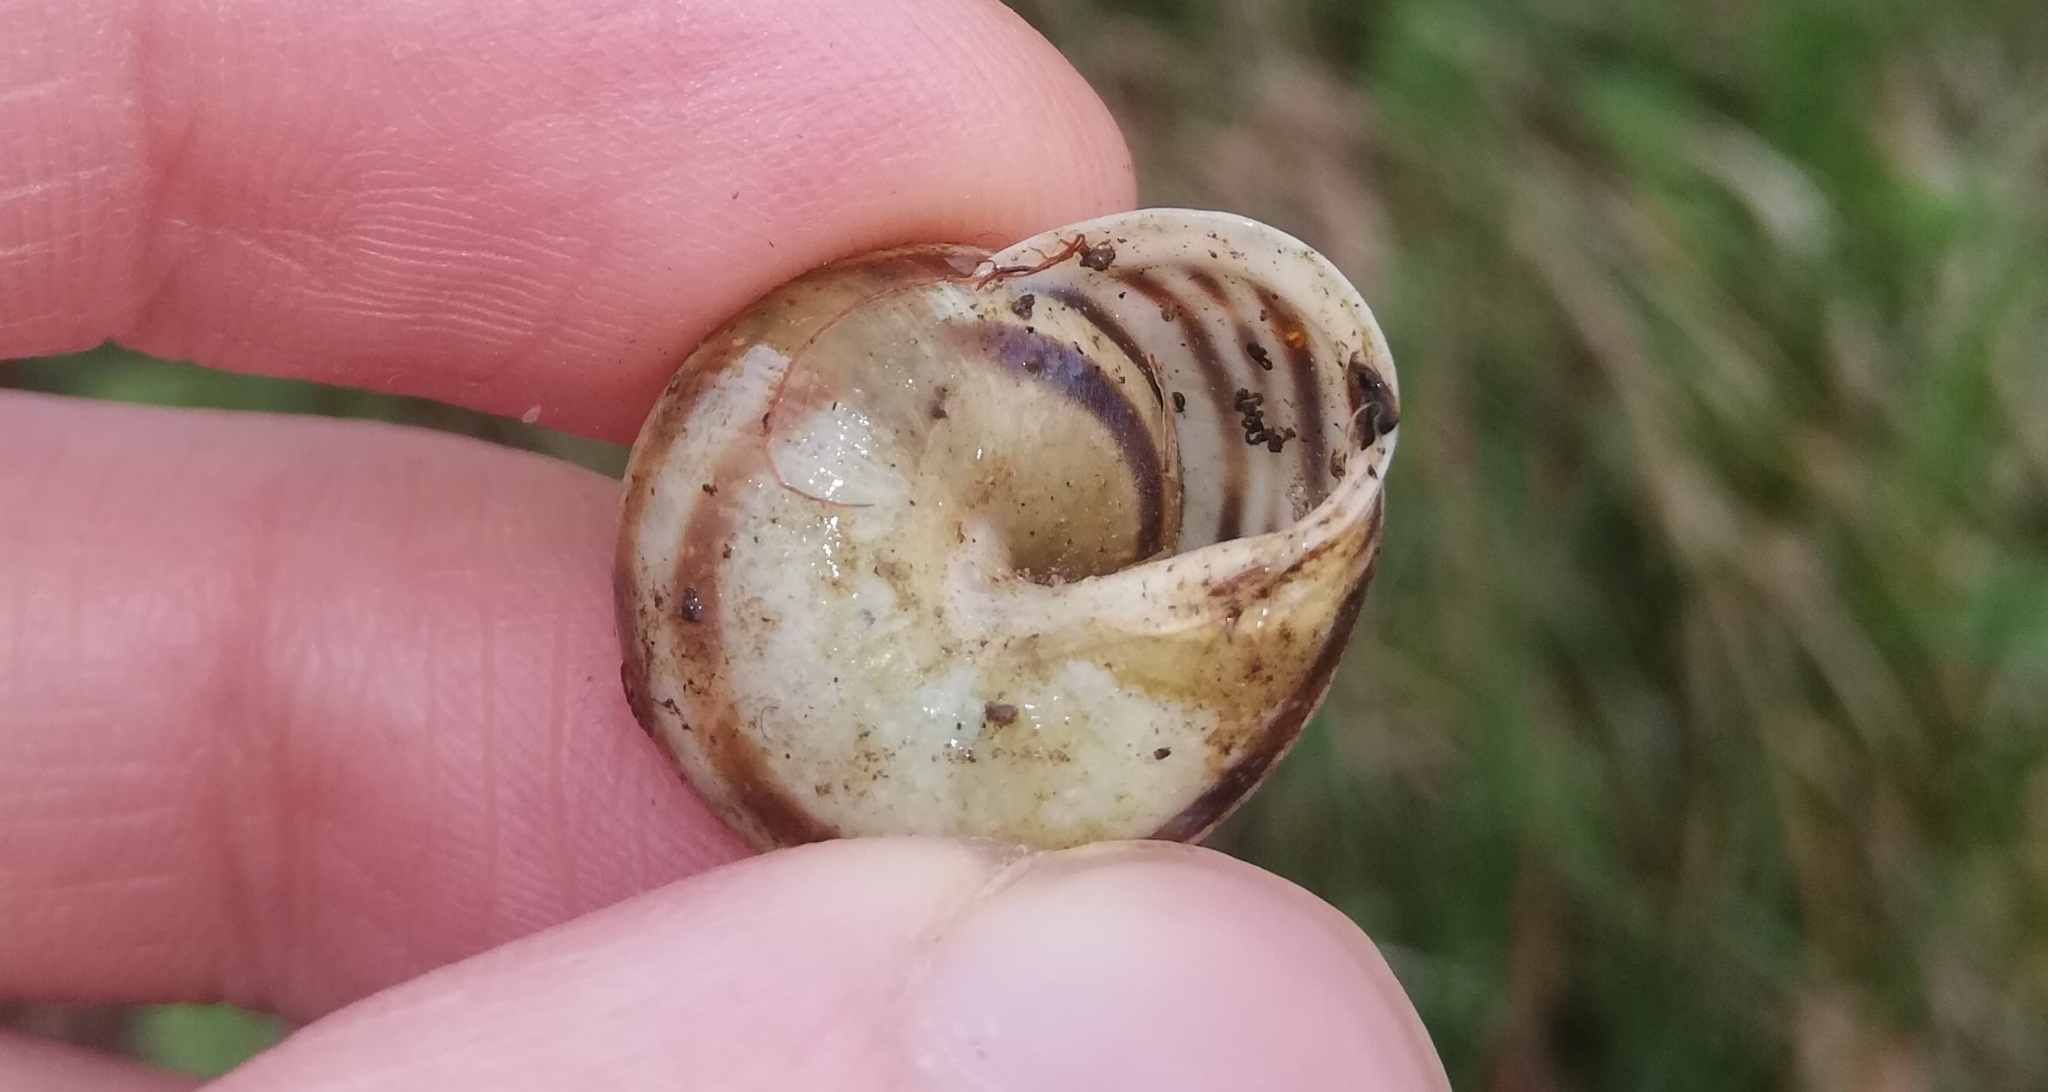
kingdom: Animalia
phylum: Mollusca
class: Gastropoda
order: Stylommatophora
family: Helicidae
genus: Cepaea
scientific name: Cepaea hortensis
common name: White-lip gardensnail
